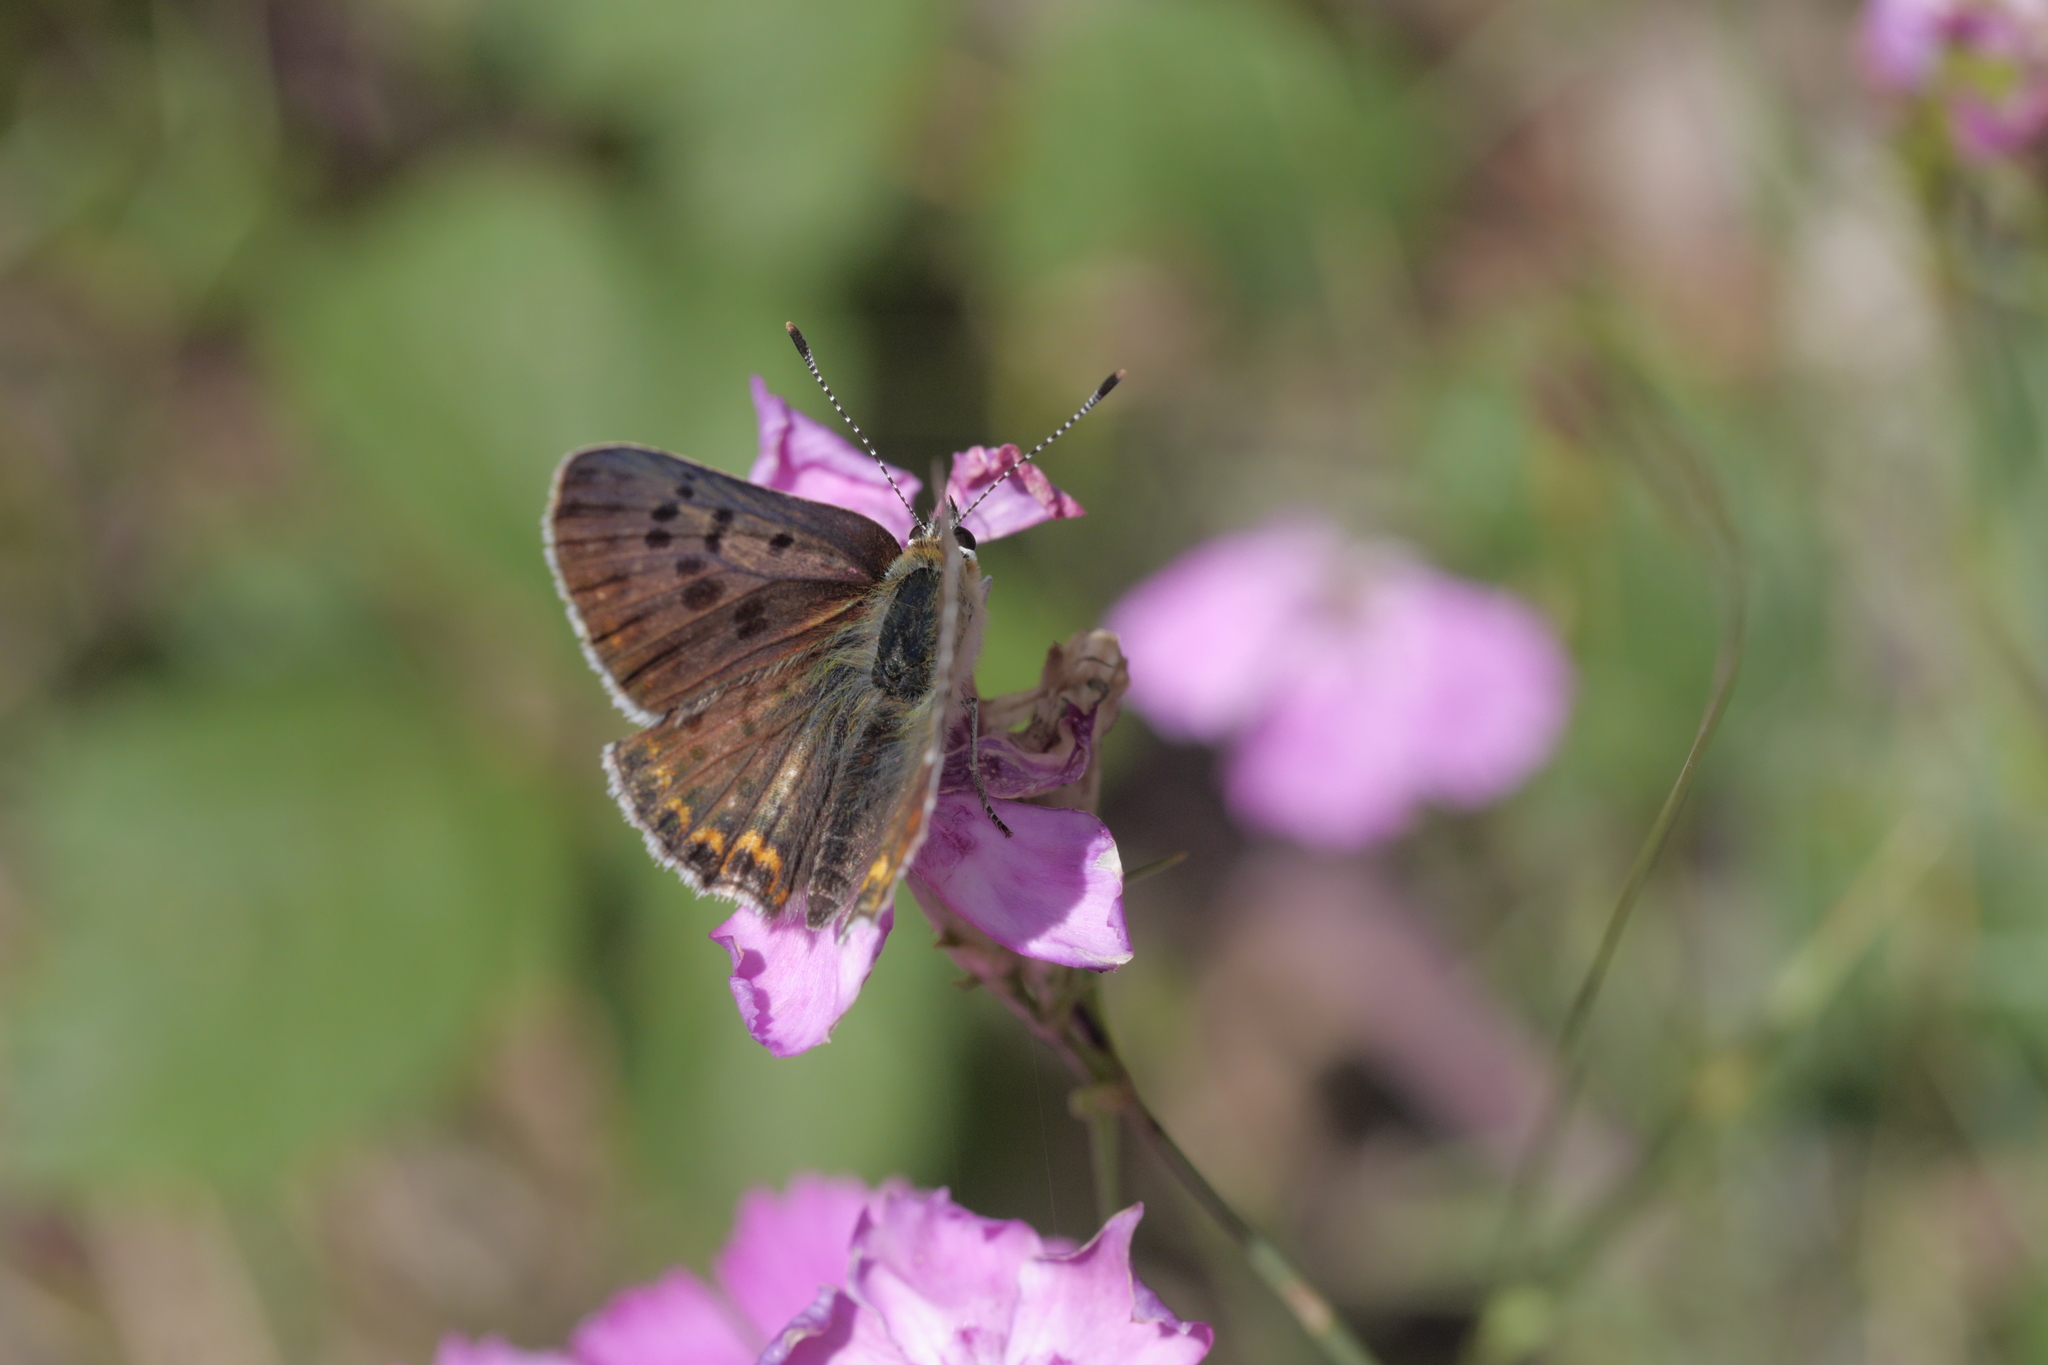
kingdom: Animalia
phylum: Arthropoda
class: Insecta
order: Lepidoptera
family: Lycaenidae
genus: Loweia
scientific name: Loweia tityrus
